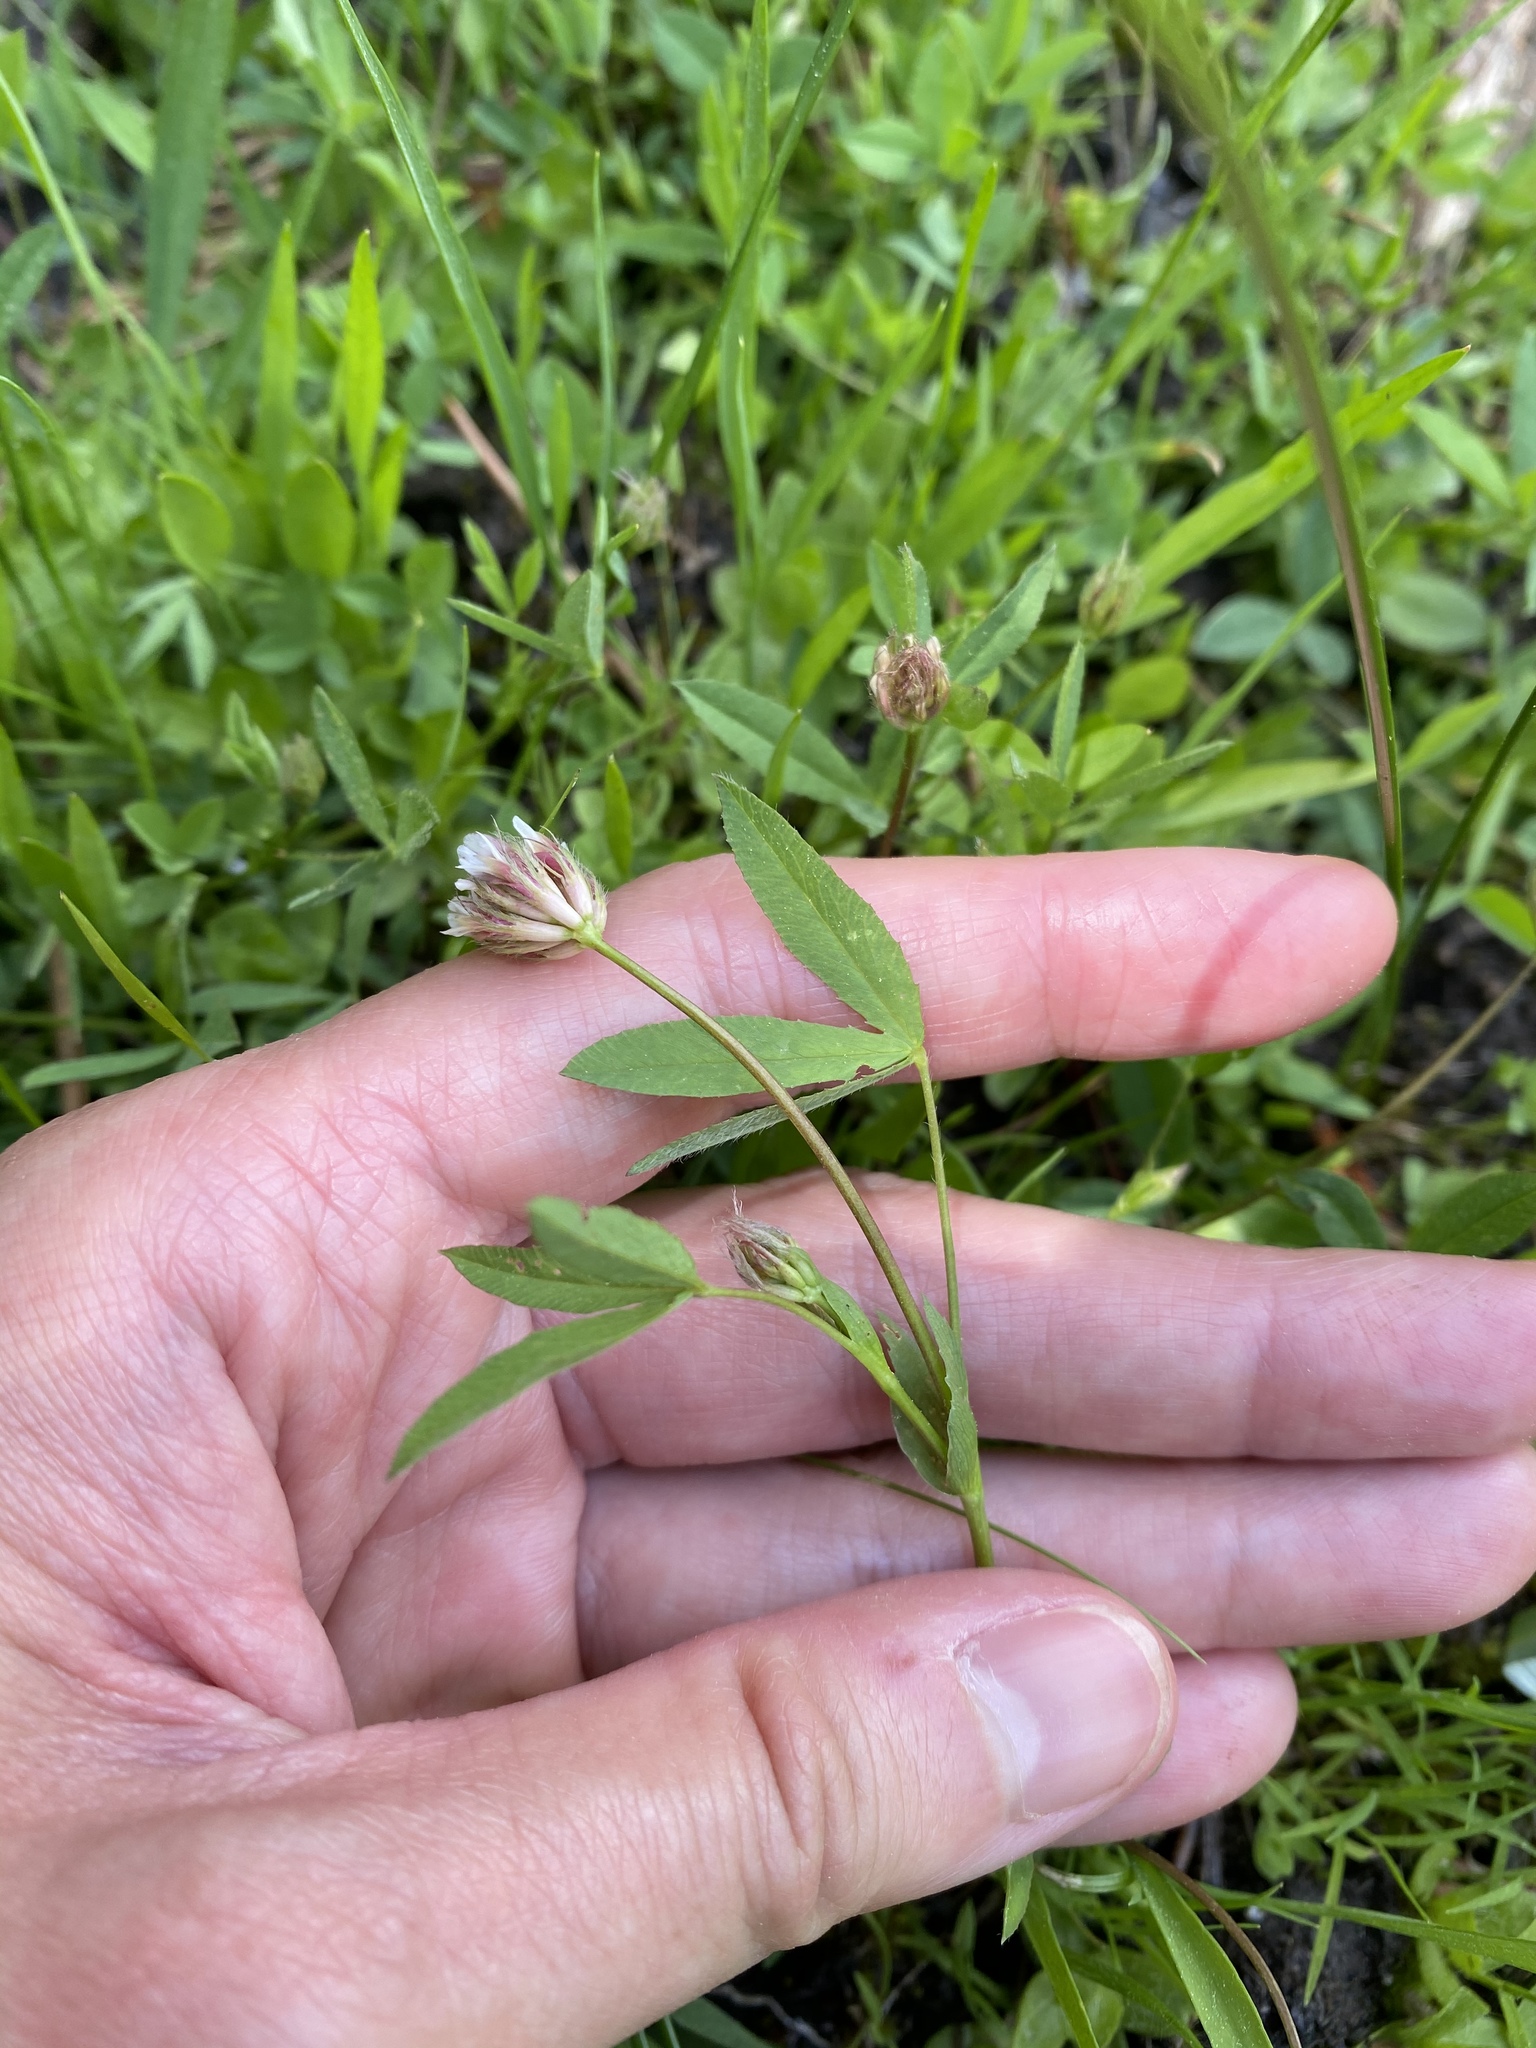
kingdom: Plantae
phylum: Tracheophyta
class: Magnoliopsida
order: Fabales
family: Fabaceae
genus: Trifolium
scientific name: Trifolium longipes
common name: Long-stalk clover
